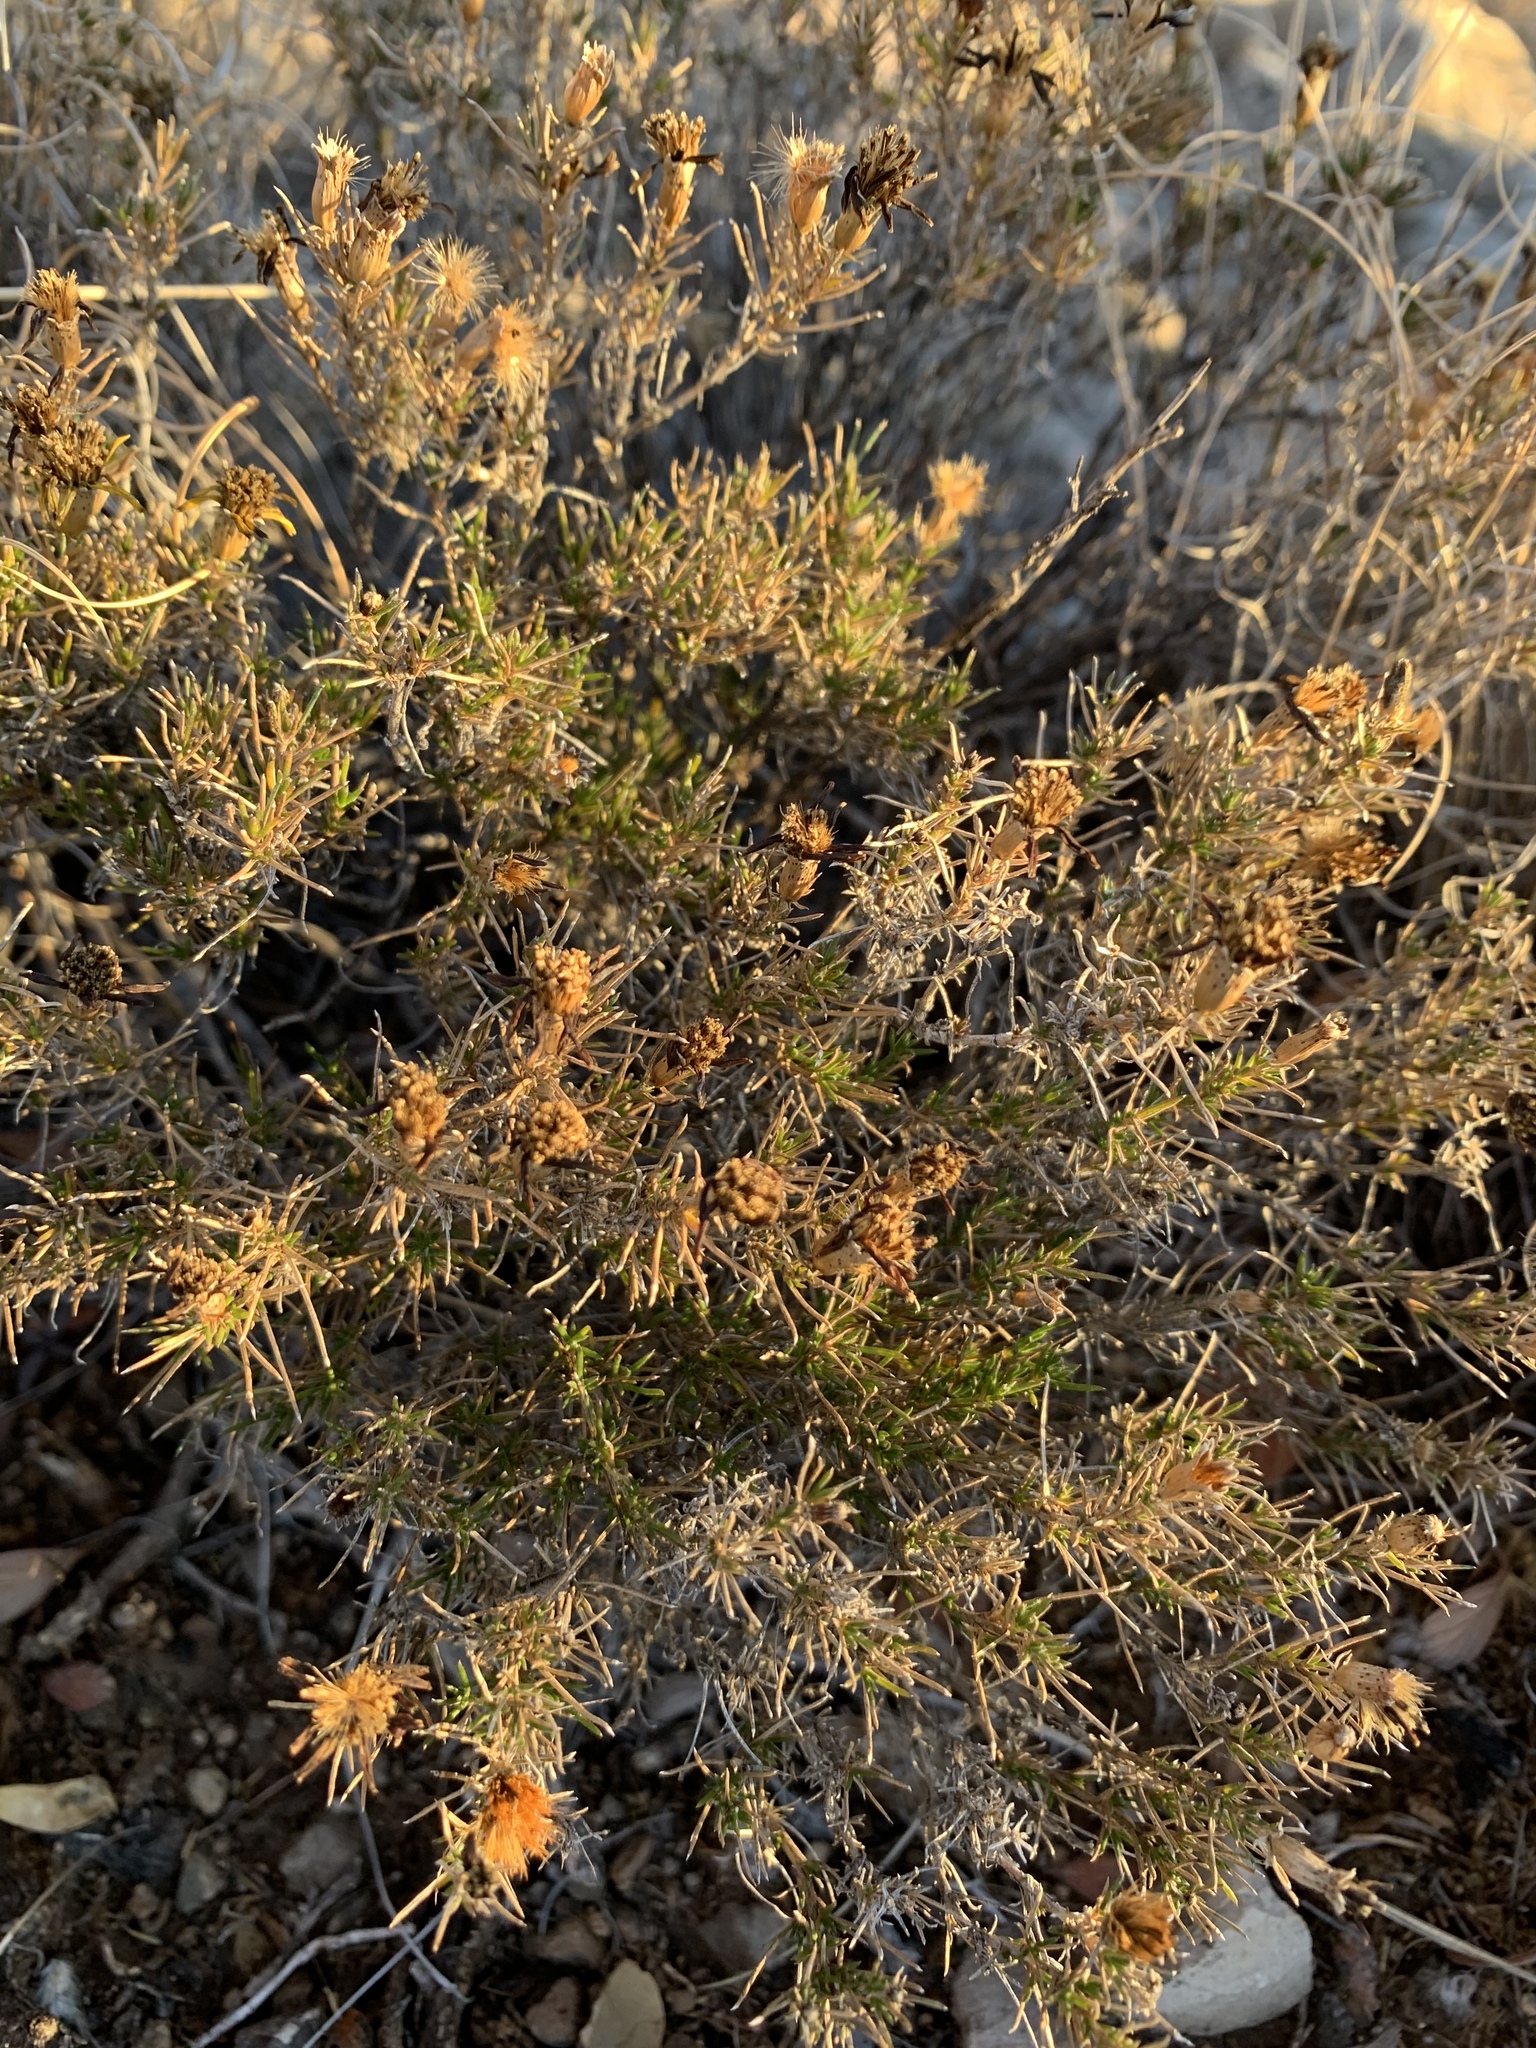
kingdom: Plantae
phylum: Tracheophyta
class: Magnoliopsida
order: Asterales
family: Asteraceae
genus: Thymophylla
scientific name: Thymophylla acerosa
